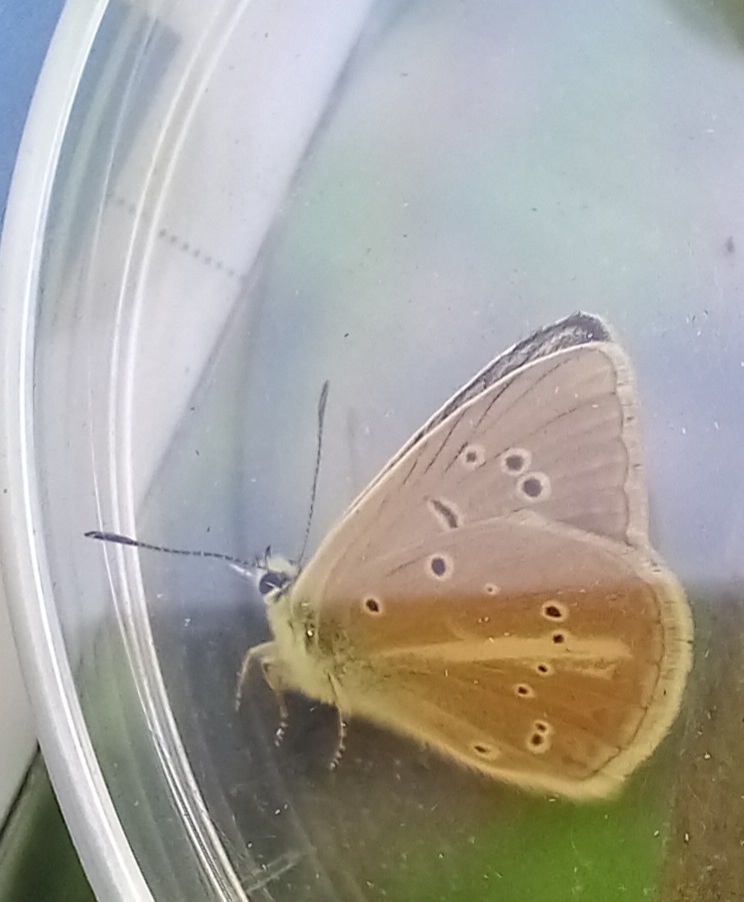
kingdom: Animalia
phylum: Arthropoda
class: Insecta
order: Lepidoptera
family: Lycaenidae
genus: Agrodiaetus
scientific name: Agrodiaetus dolus
